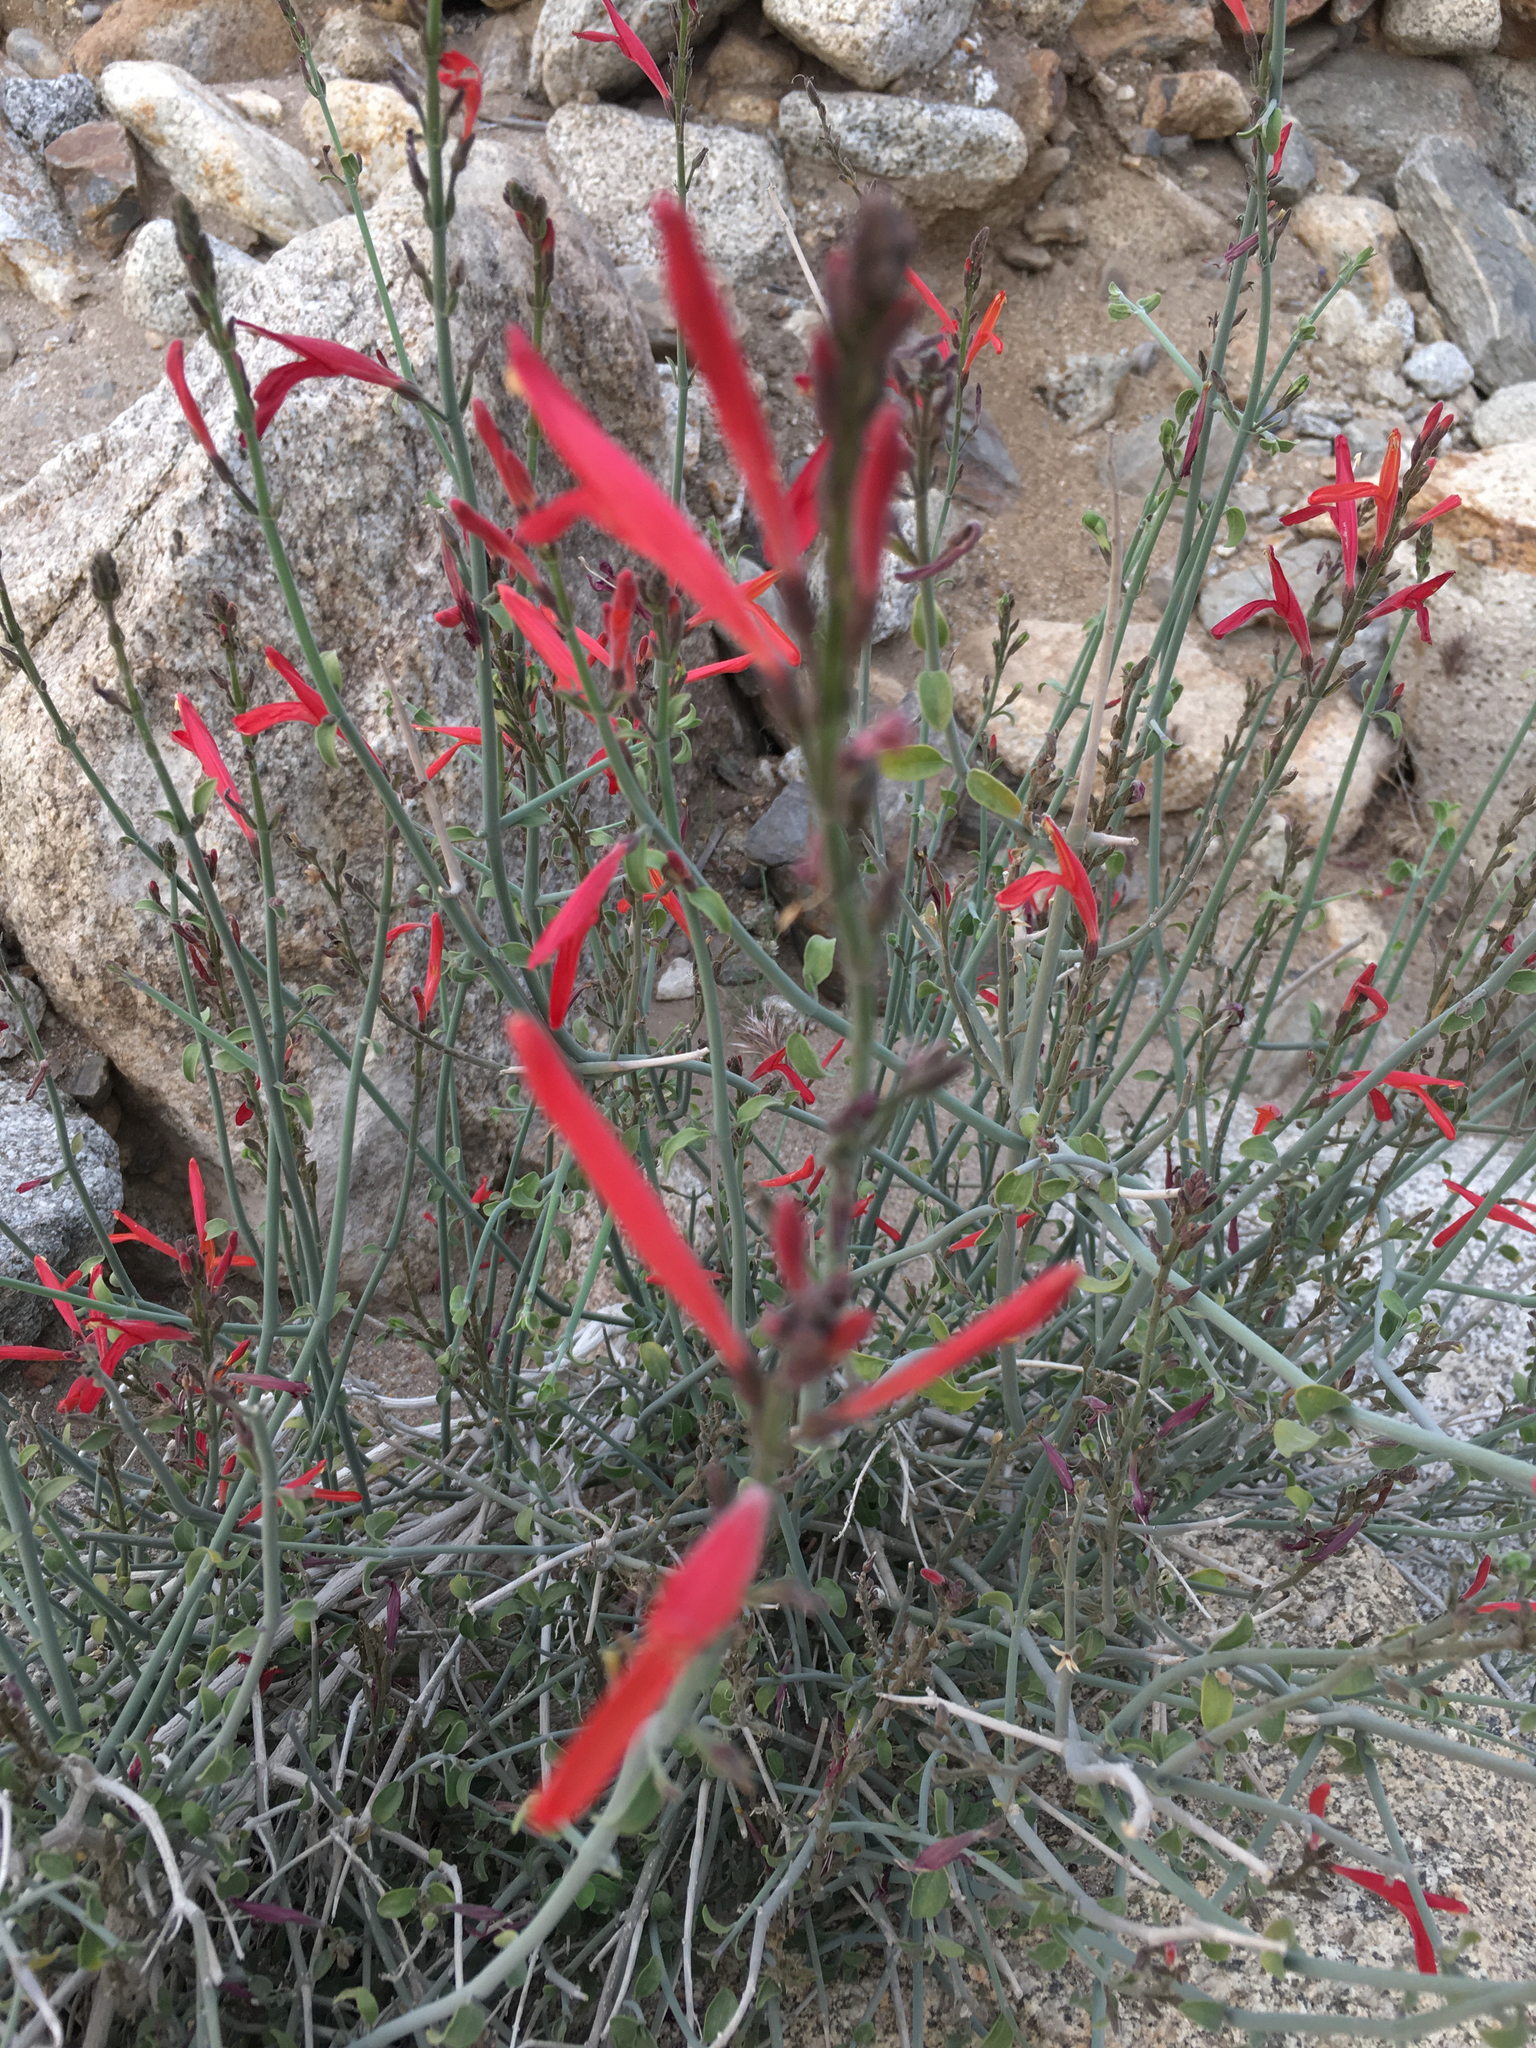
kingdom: Plantae
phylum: Tracheophyta
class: Magnoliopsida
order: Lamiales
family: Acanthaceae
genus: Justicia
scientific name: Justicia californica
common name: Chuparosa-honeysuckle
